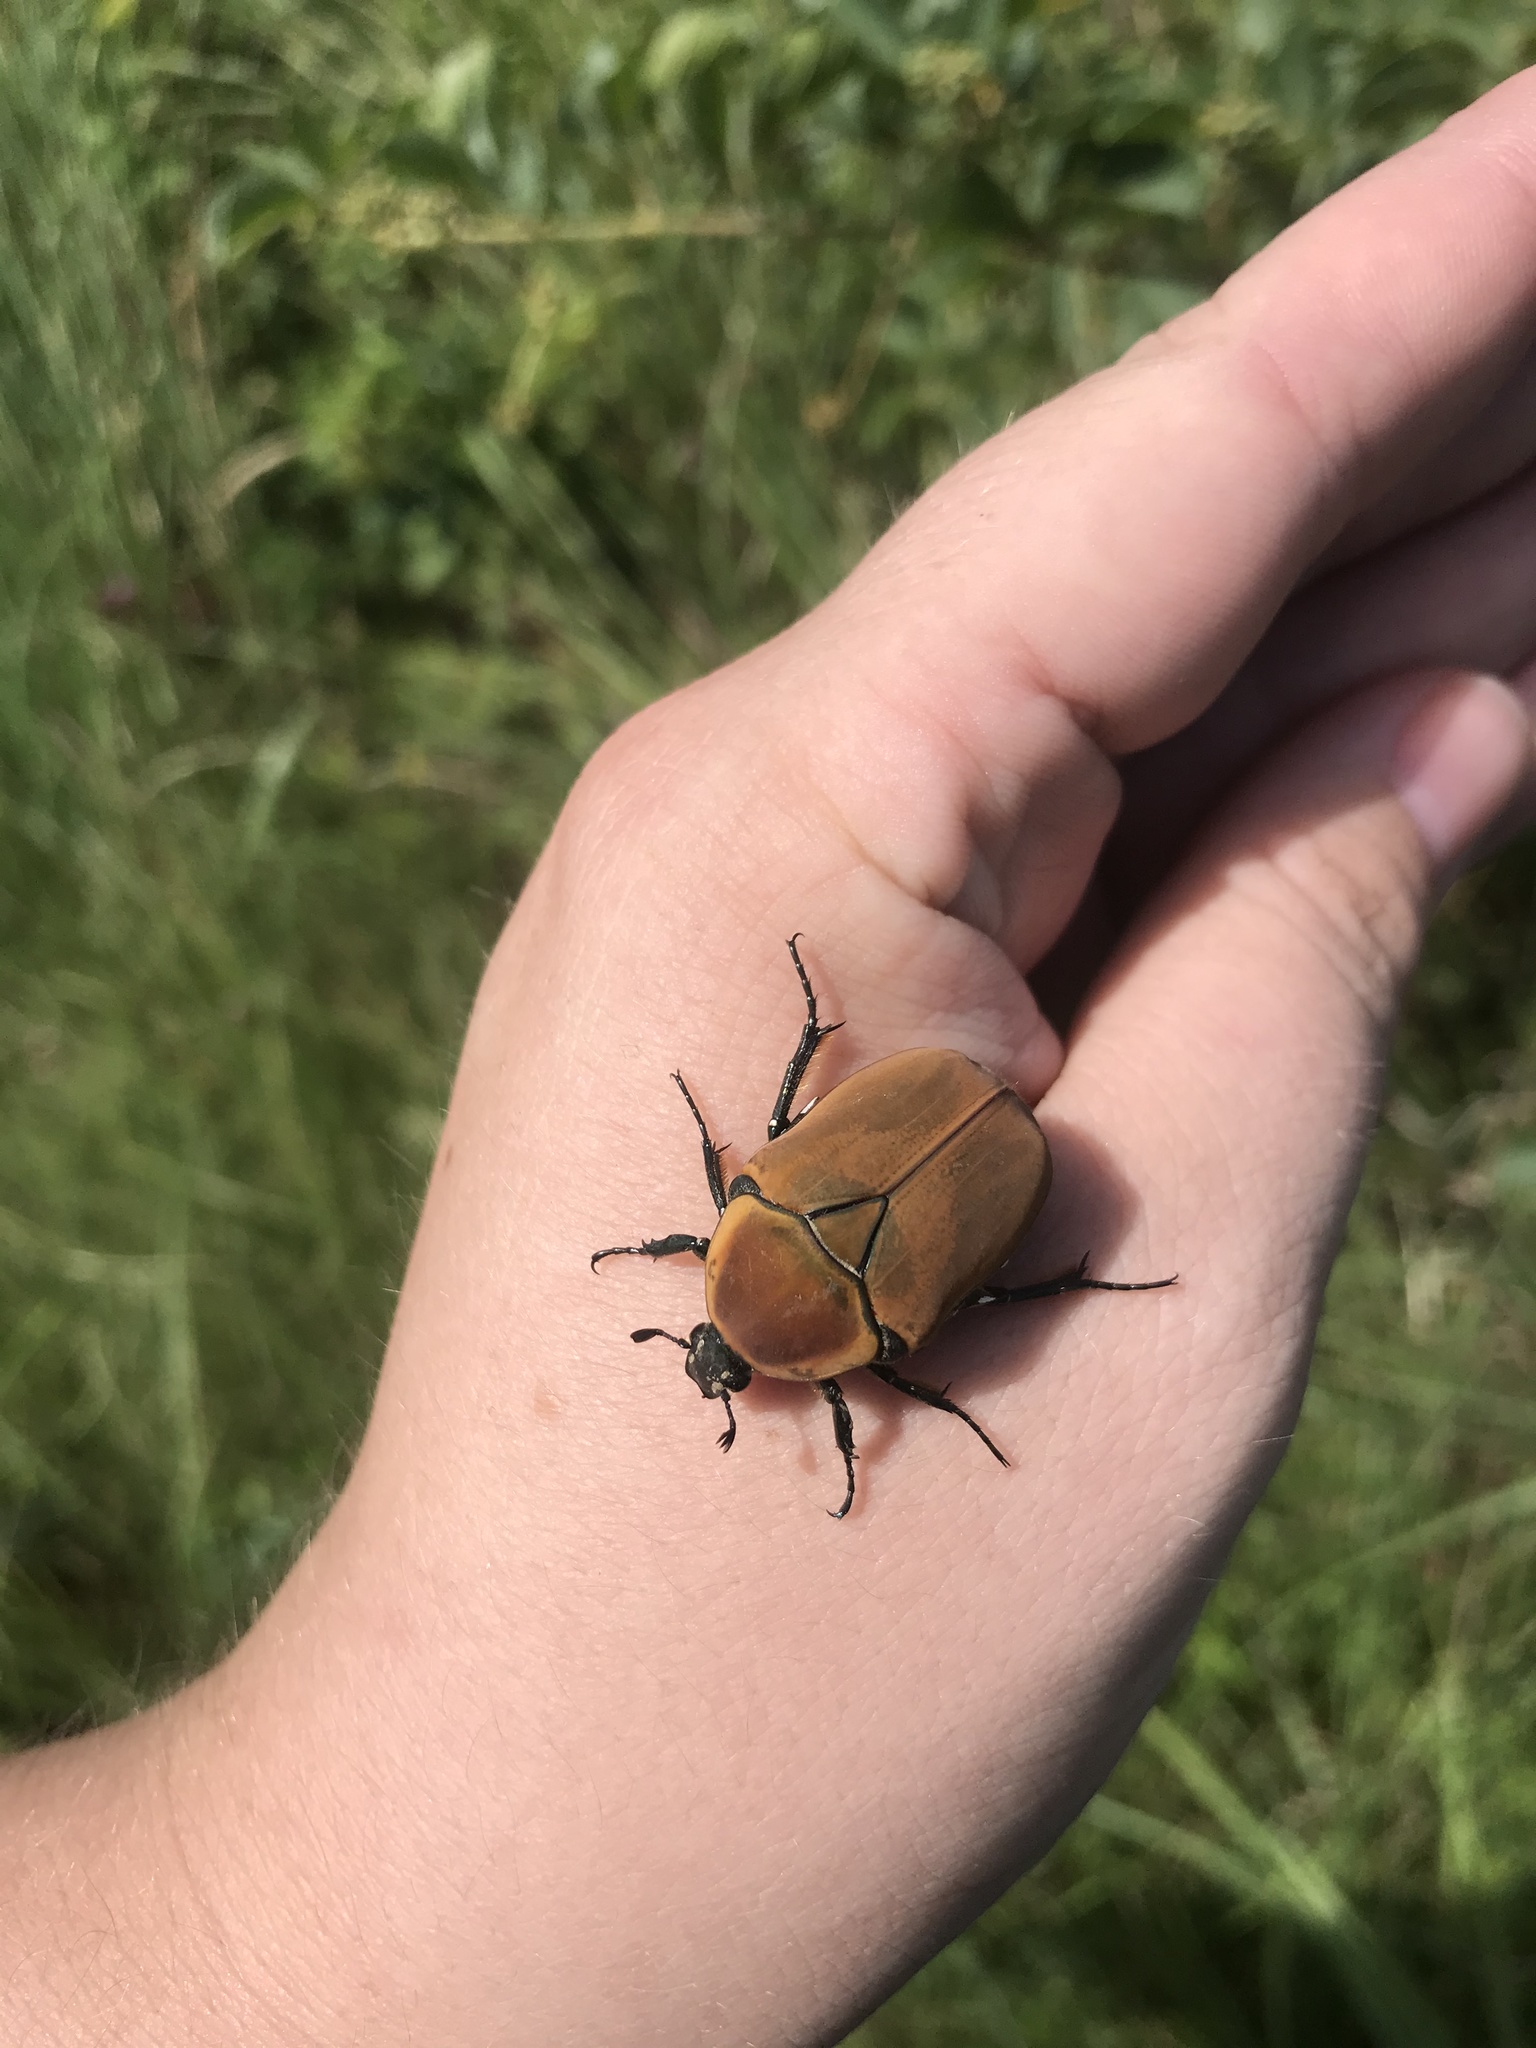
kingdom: Animalia
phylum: Arthropoda
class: Insecta
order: Coleoptera
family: Scarabaeidae
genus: Dischista
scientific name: Dischista rufa
